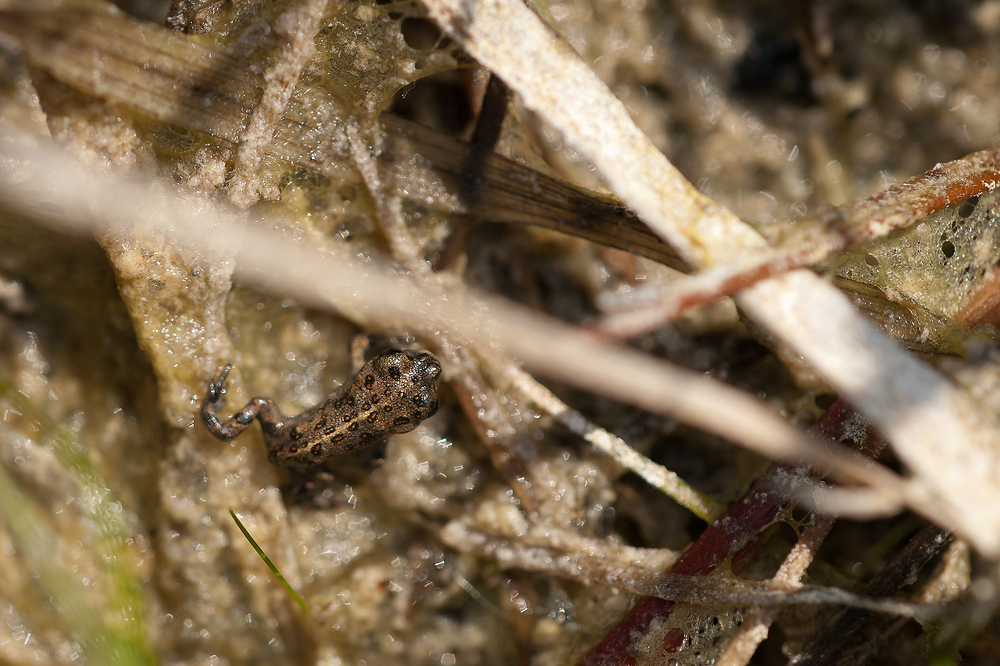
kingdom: Animalia
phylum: Chordata
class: Amphibia
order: Anura
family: Bufonidae
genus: Epidalea
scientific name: Epidalea calamita
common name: Natterjack toad
